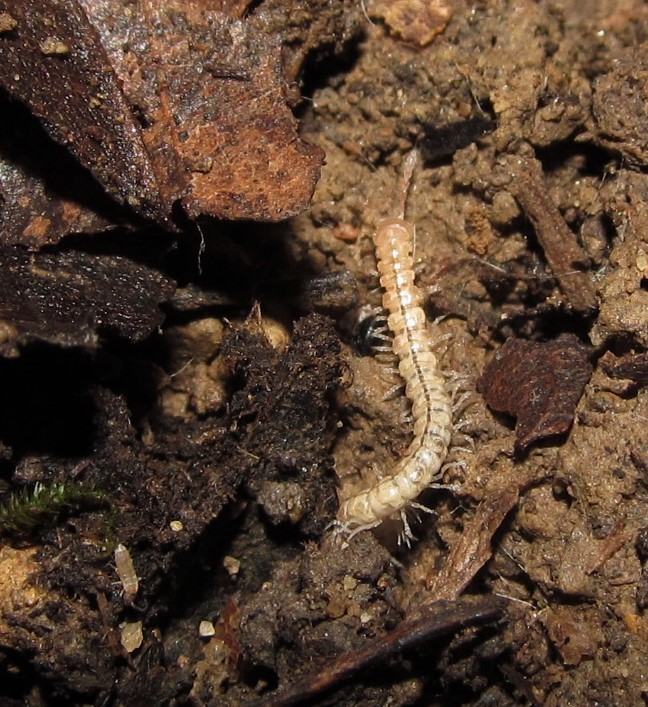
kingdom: Animalia
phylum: Arthropoda
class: Diplopoda
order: Polydesmida
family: Macrosternodesmidae
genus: Chaetaspis
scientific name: Chaetaspis ohionis
